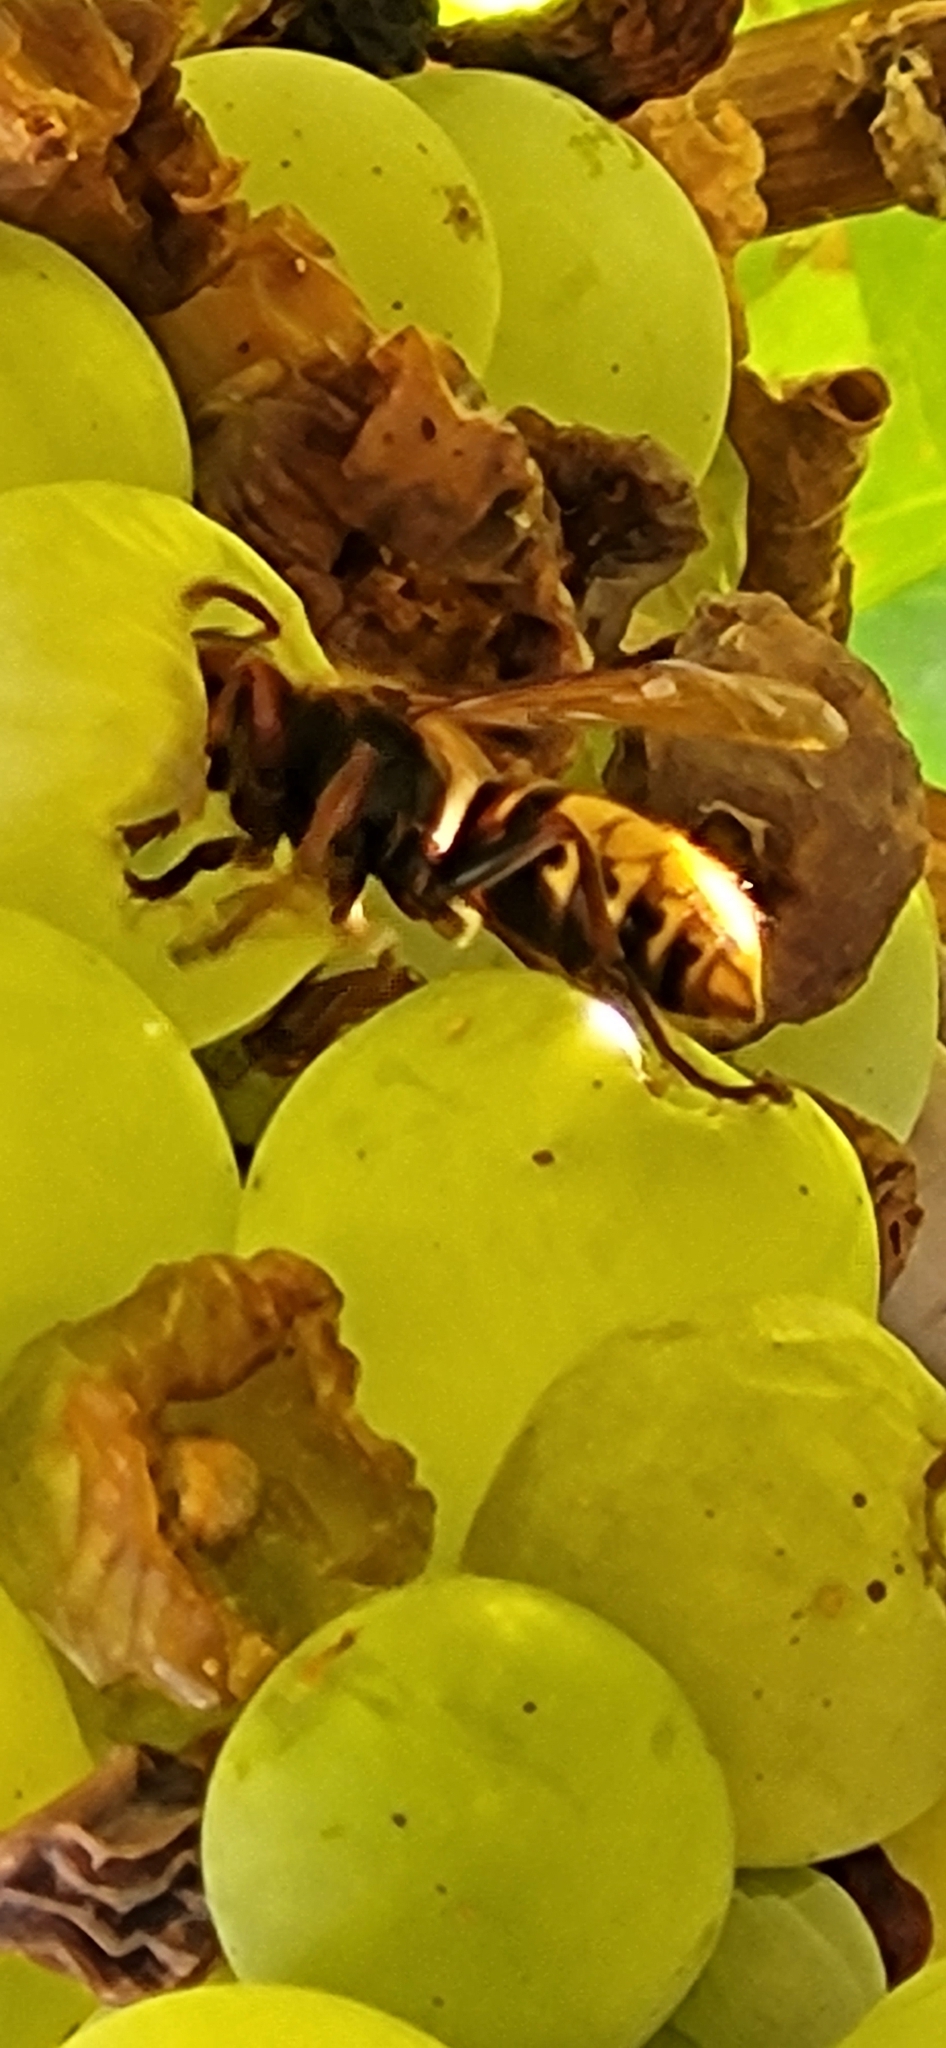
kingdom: Animalia
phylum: Arthropoda
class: Insecta
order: Hymenoptera
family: Vespidae
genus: Vespa
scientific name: Vespa crabro
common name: Hornet
